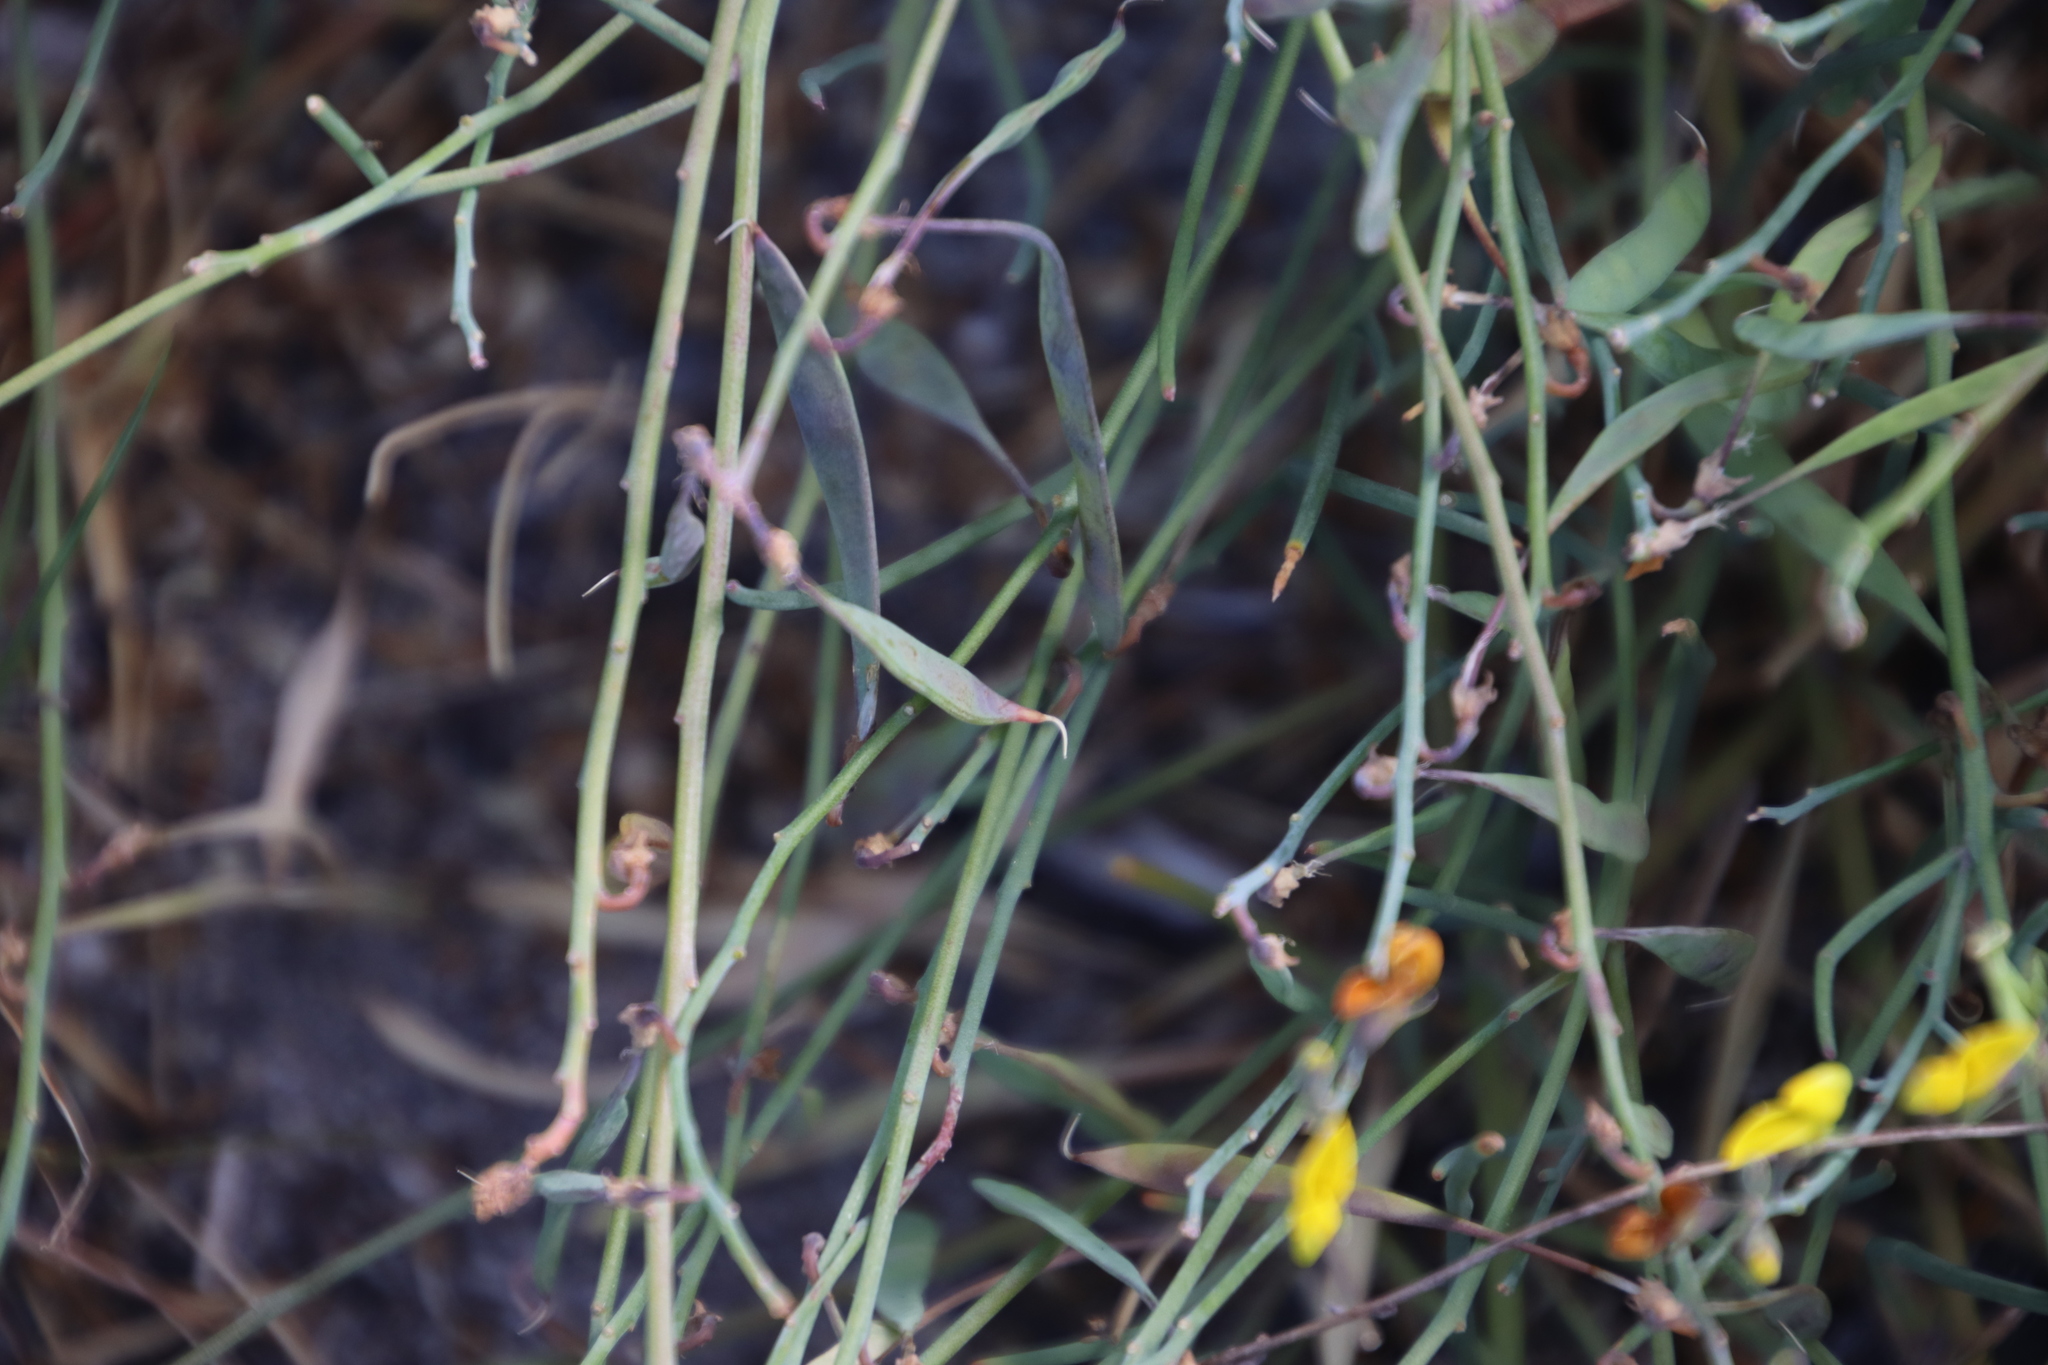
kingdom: Plantae
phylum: Tracheophyta
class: Magnoliopsida
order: Fabales
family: Fabaceae
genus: Lebeckia
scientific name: Lebeckia contaminata
